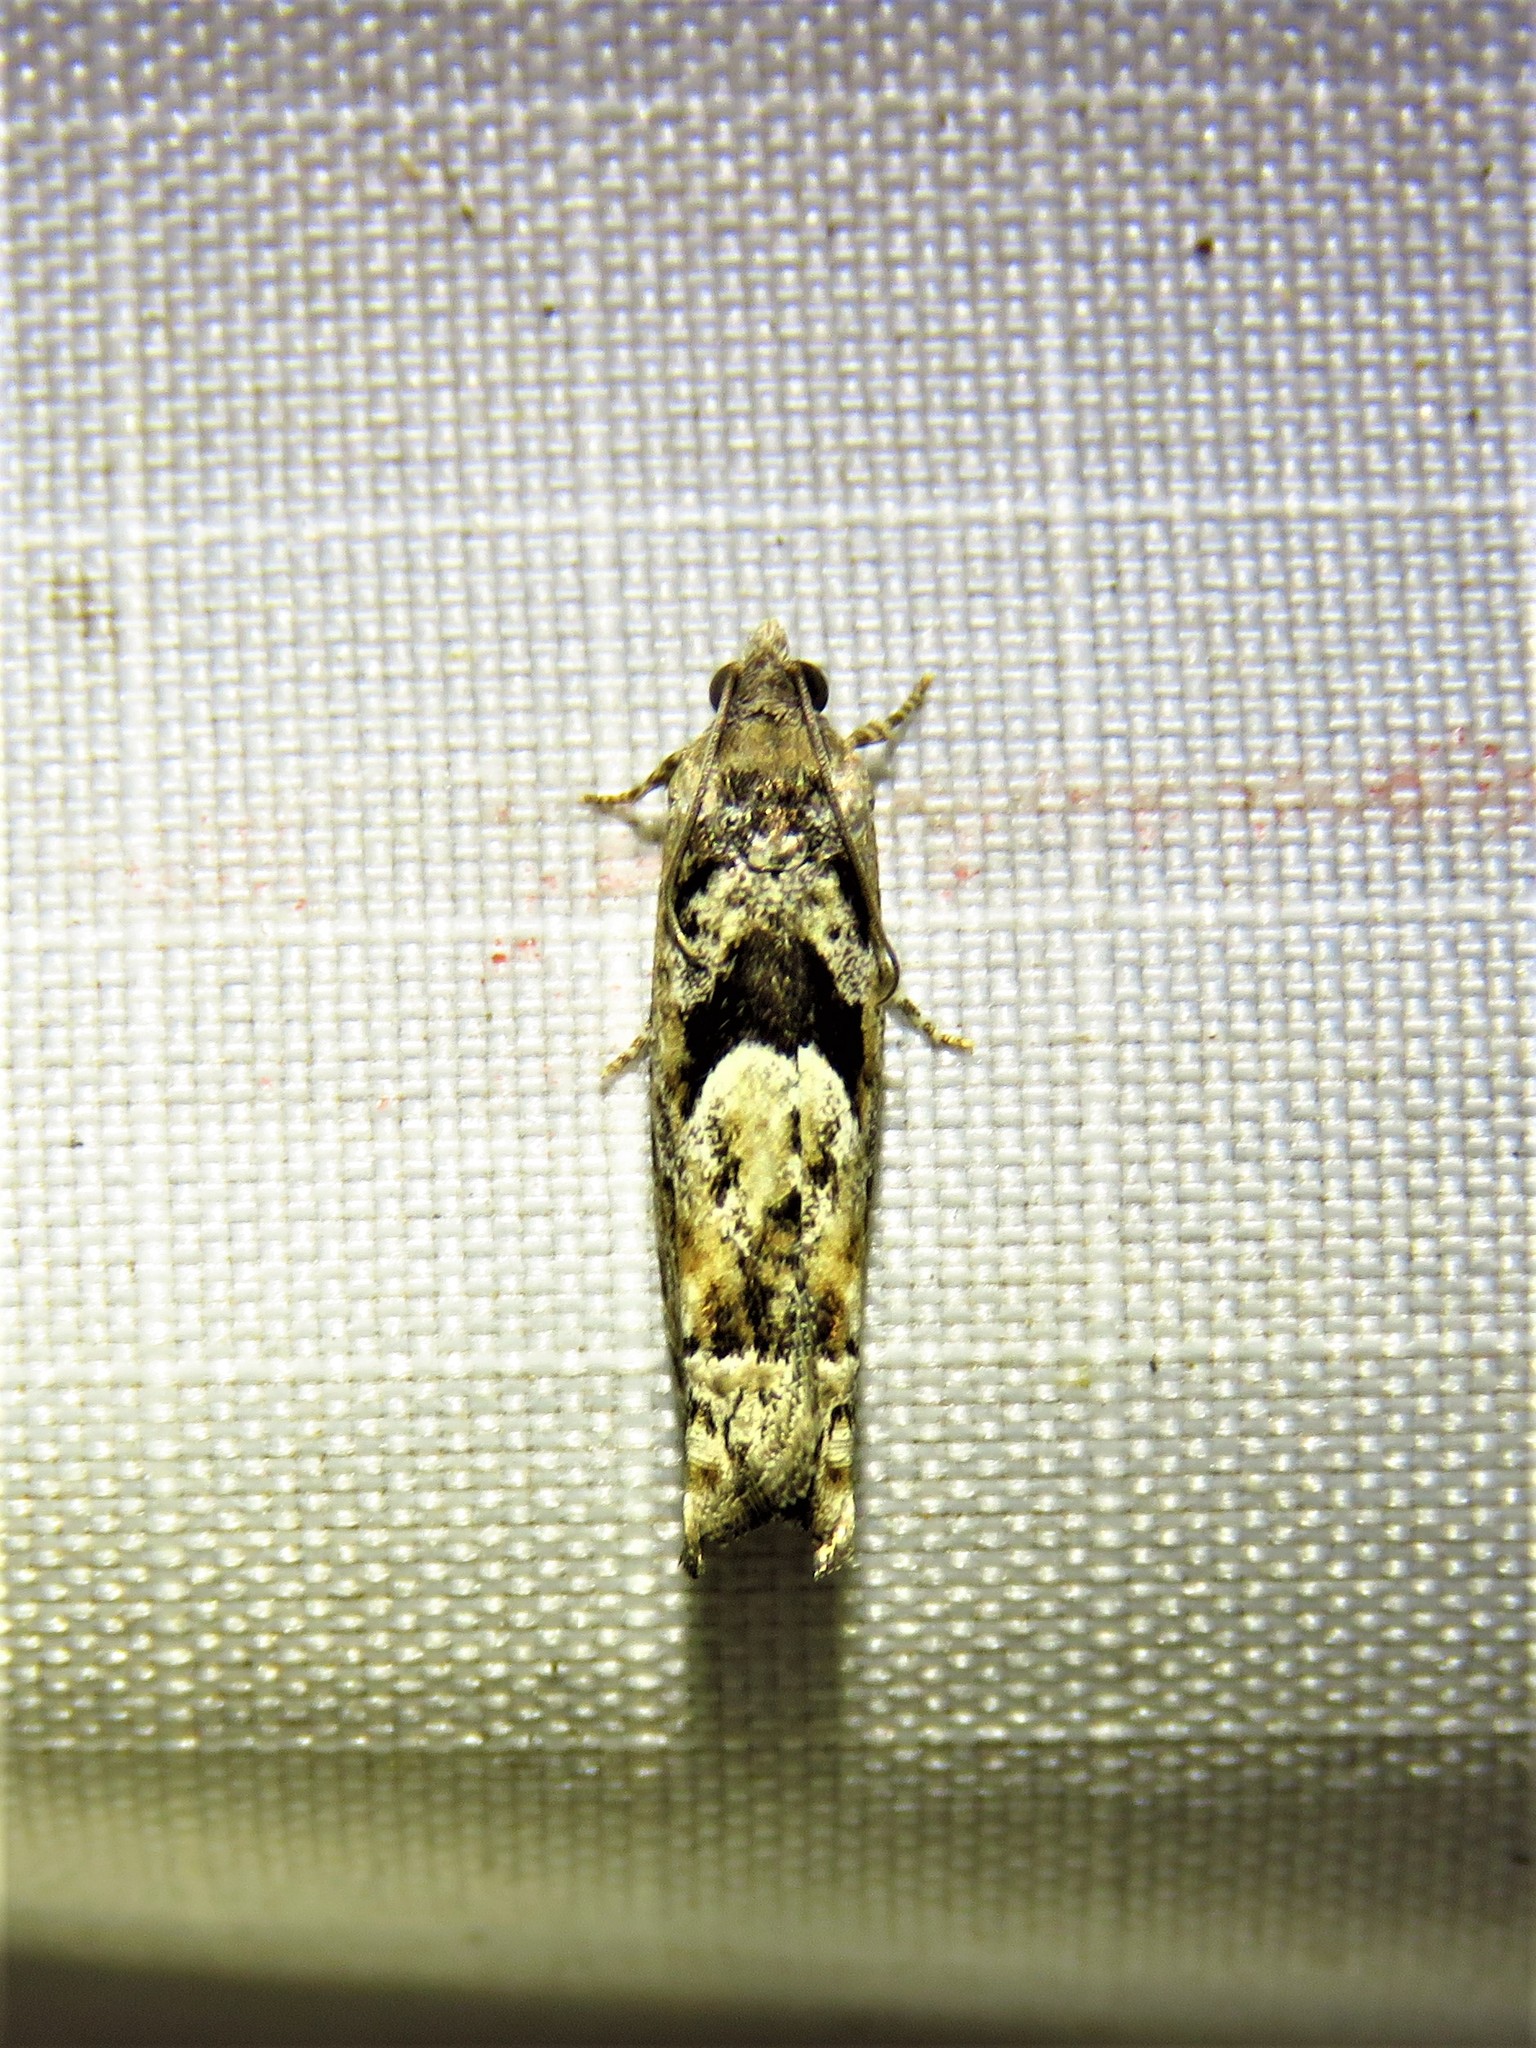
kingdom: Animalia
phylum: Arthropoda
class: Insecta
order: Lepidoptera
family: Tortricidae
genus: Pseudexentera
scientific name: Pseudexentera hodsoni
